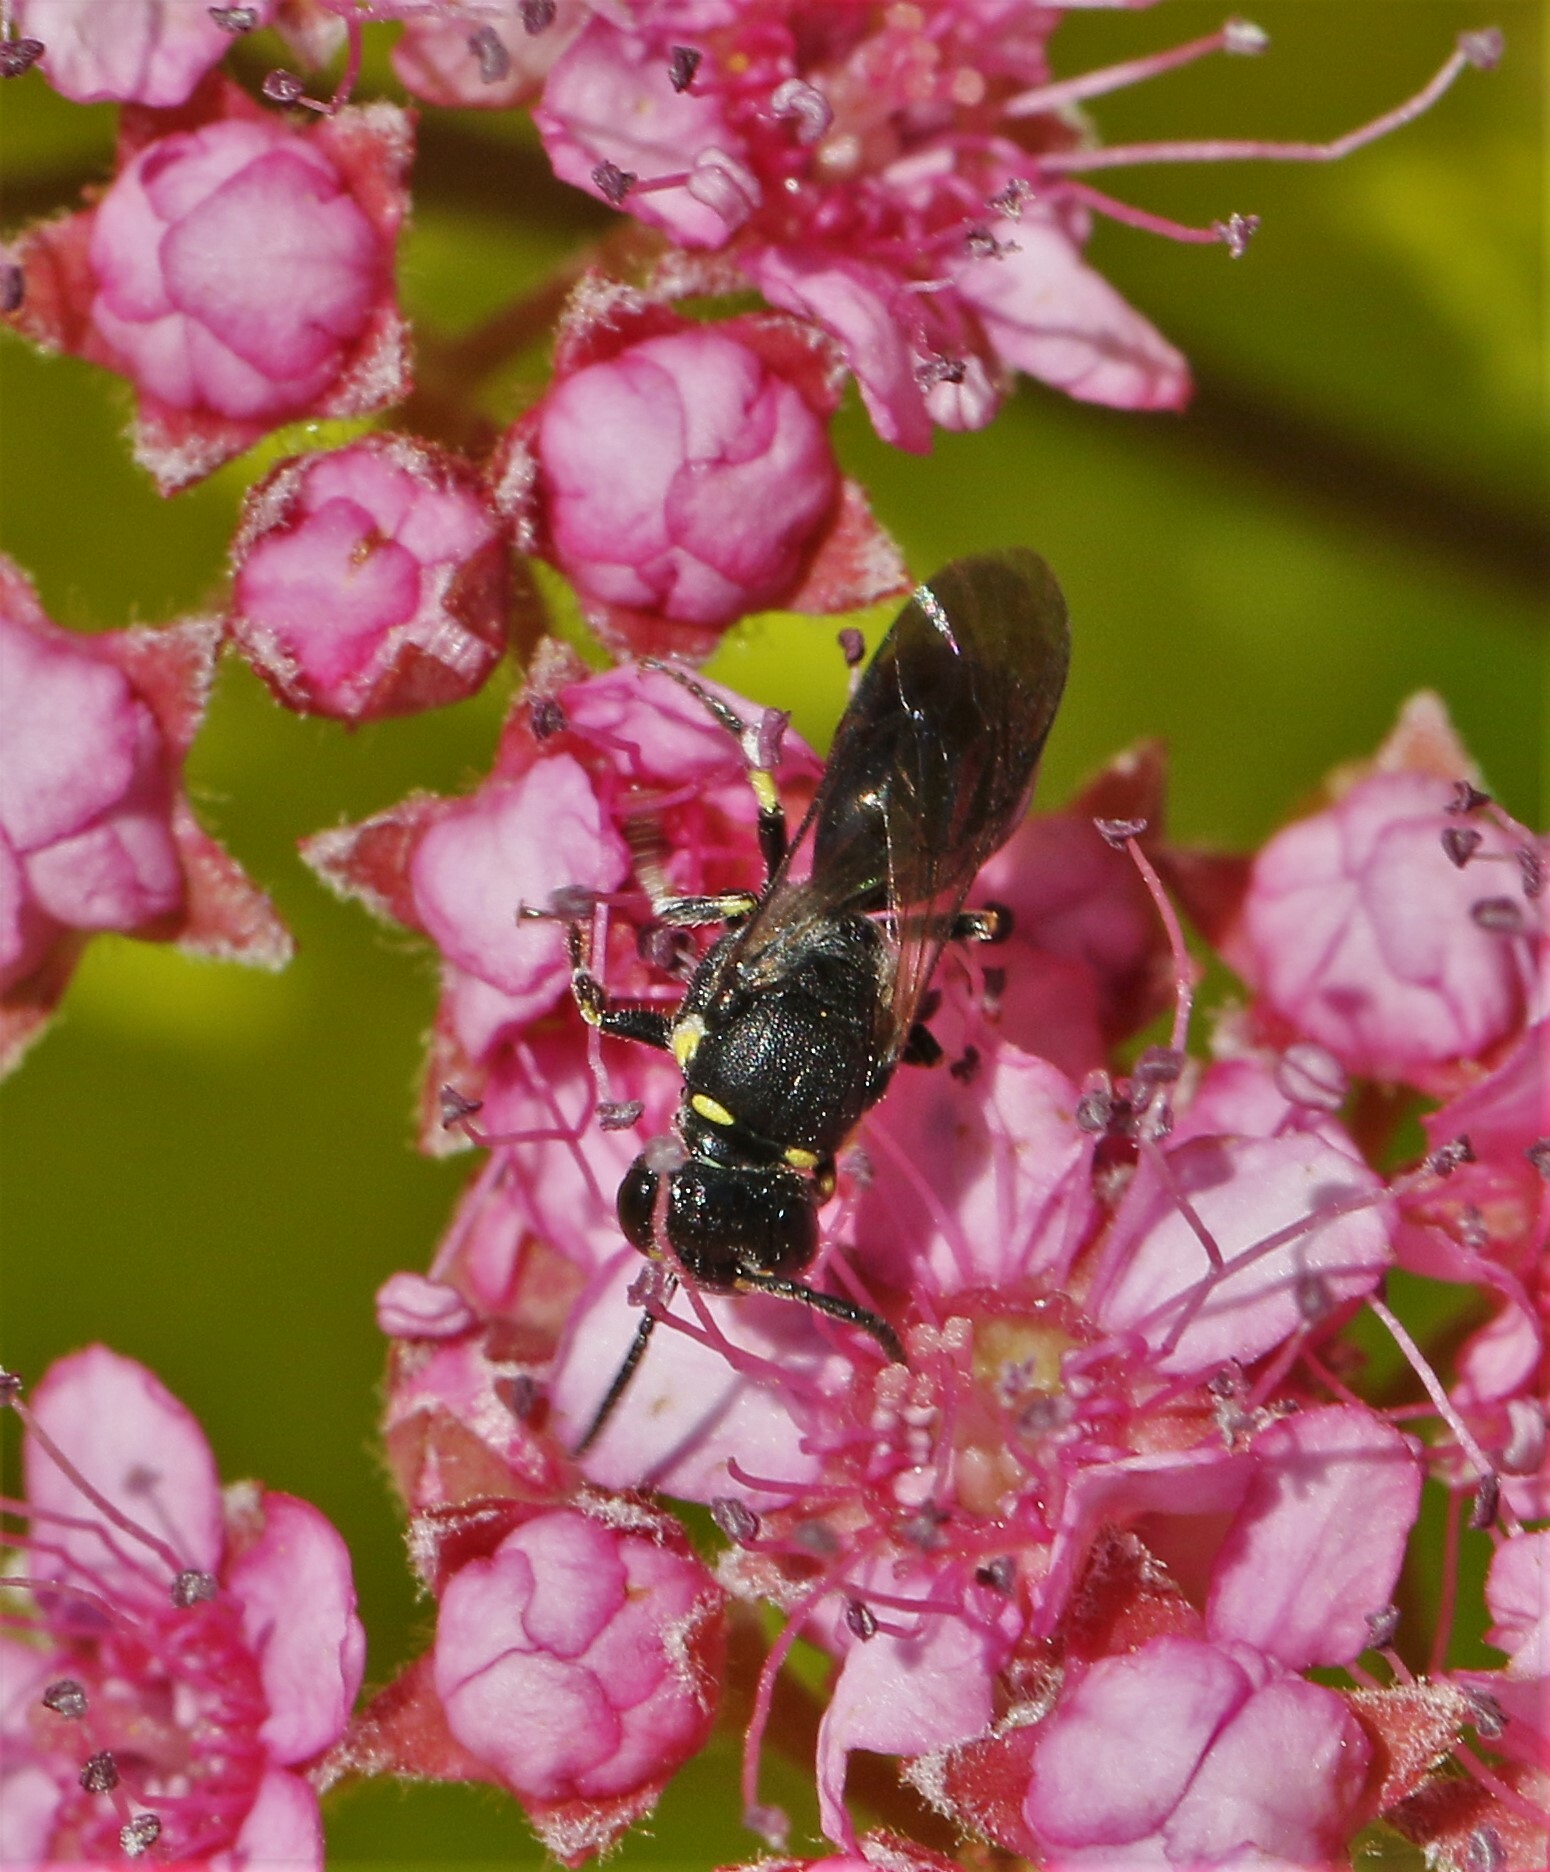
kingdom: Animalia
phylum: Arthropoda
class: Insecta
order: Hymenoptera
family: Colletidae
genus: Hylaeus
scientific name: Hylaeus modestus
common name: Yellow-faced bee
